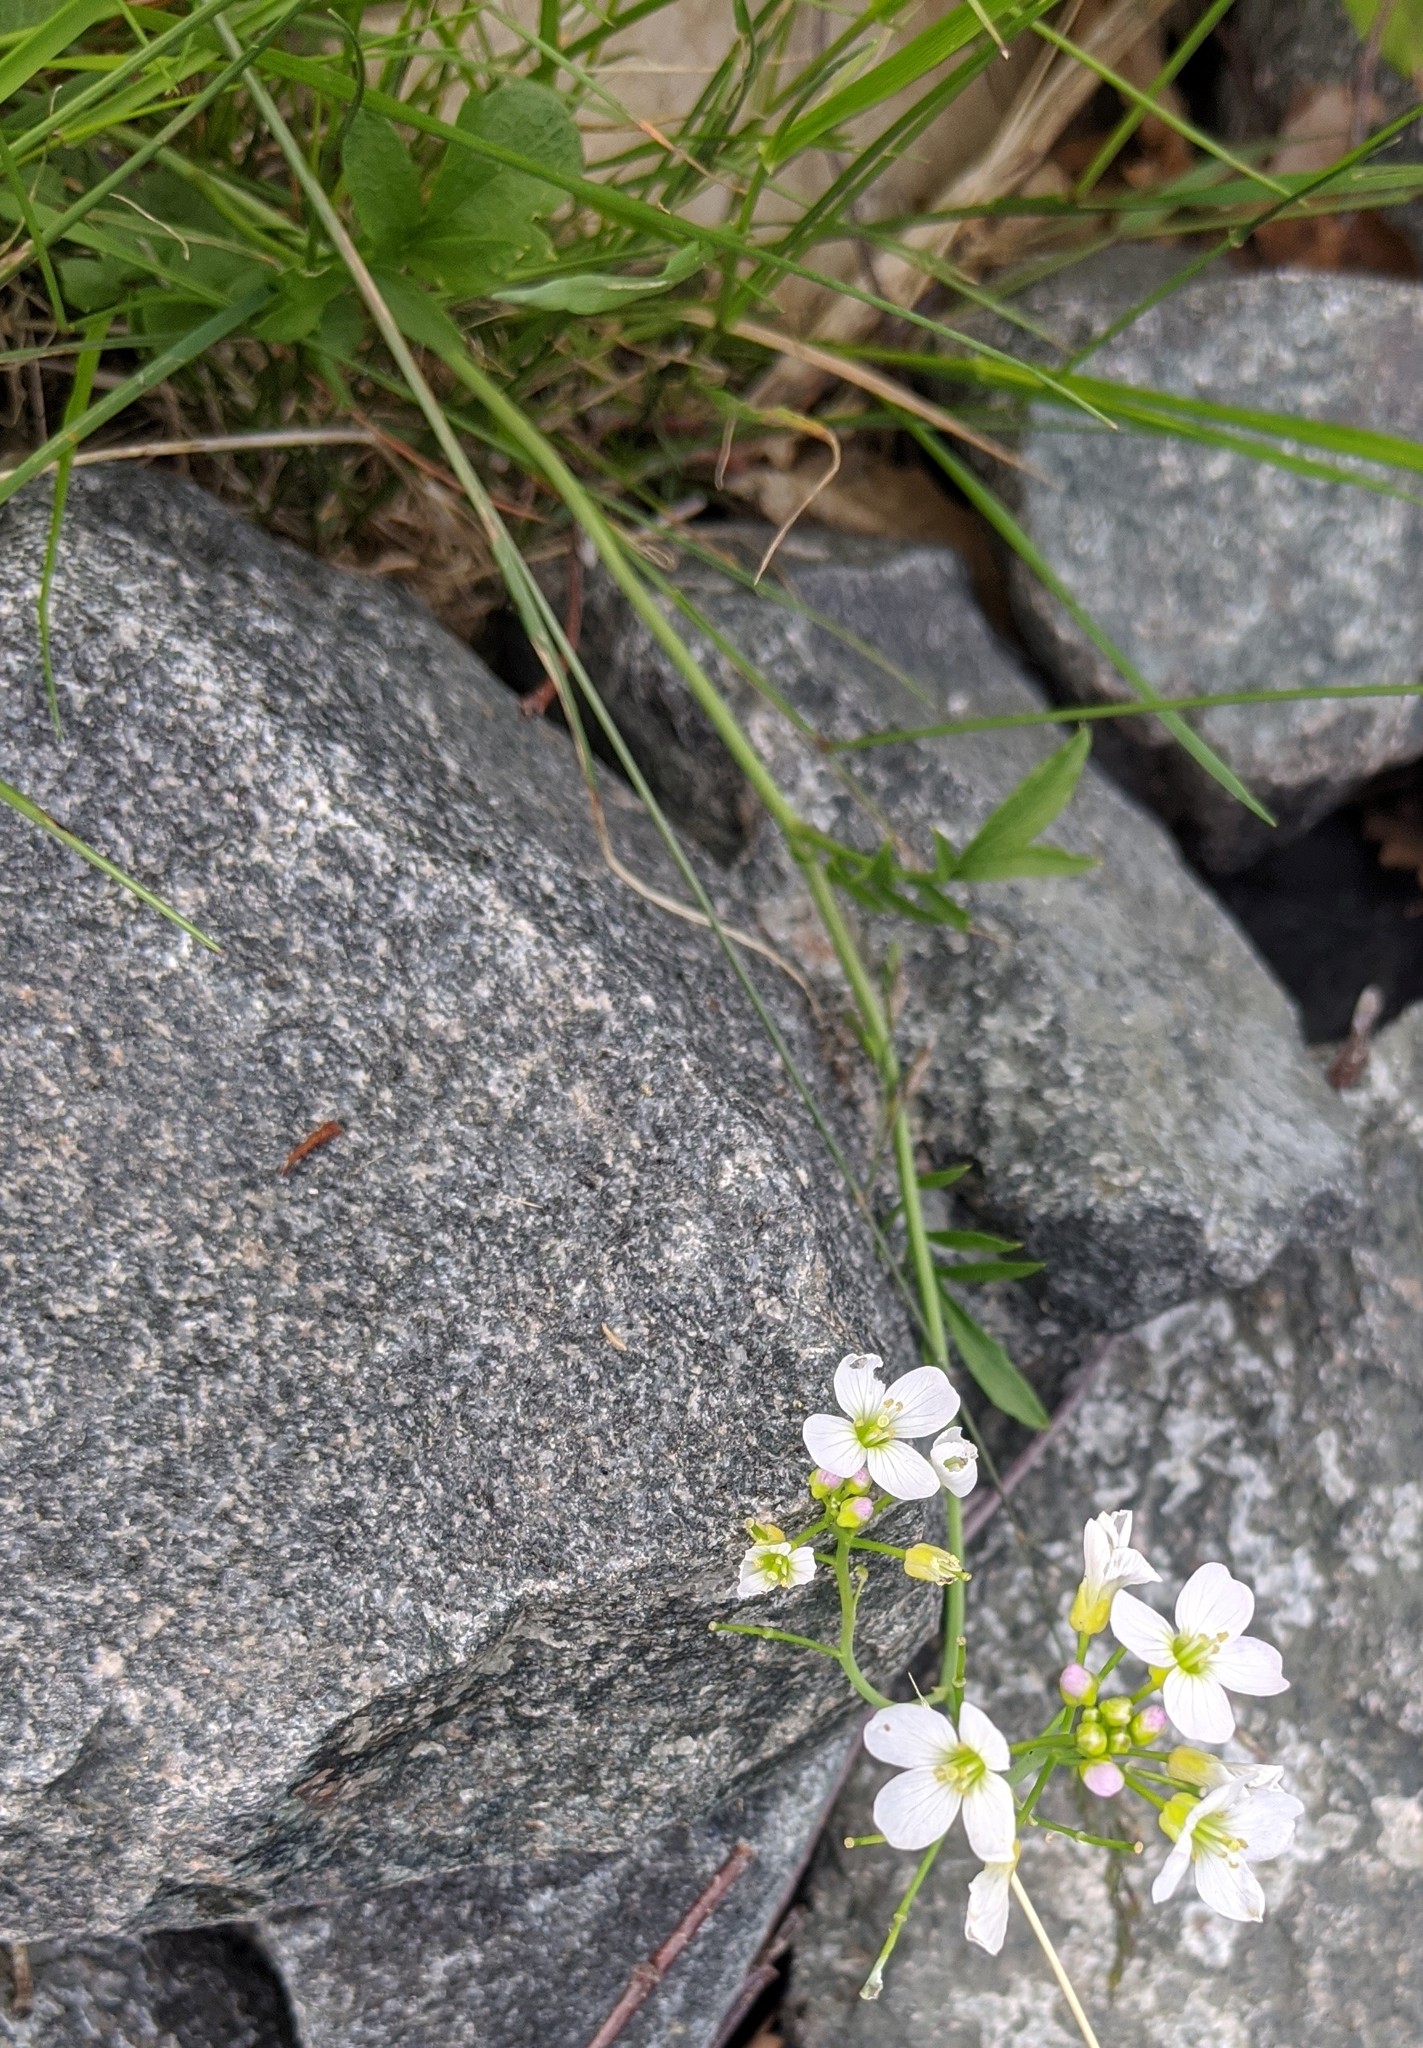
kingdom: Plantae
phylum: Tracheophyta
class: Magnoliopsida
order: Brassicales
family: Brassicaceae
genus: Cardamine
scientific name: Cardamine pratensis
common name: Cuckoo flower
